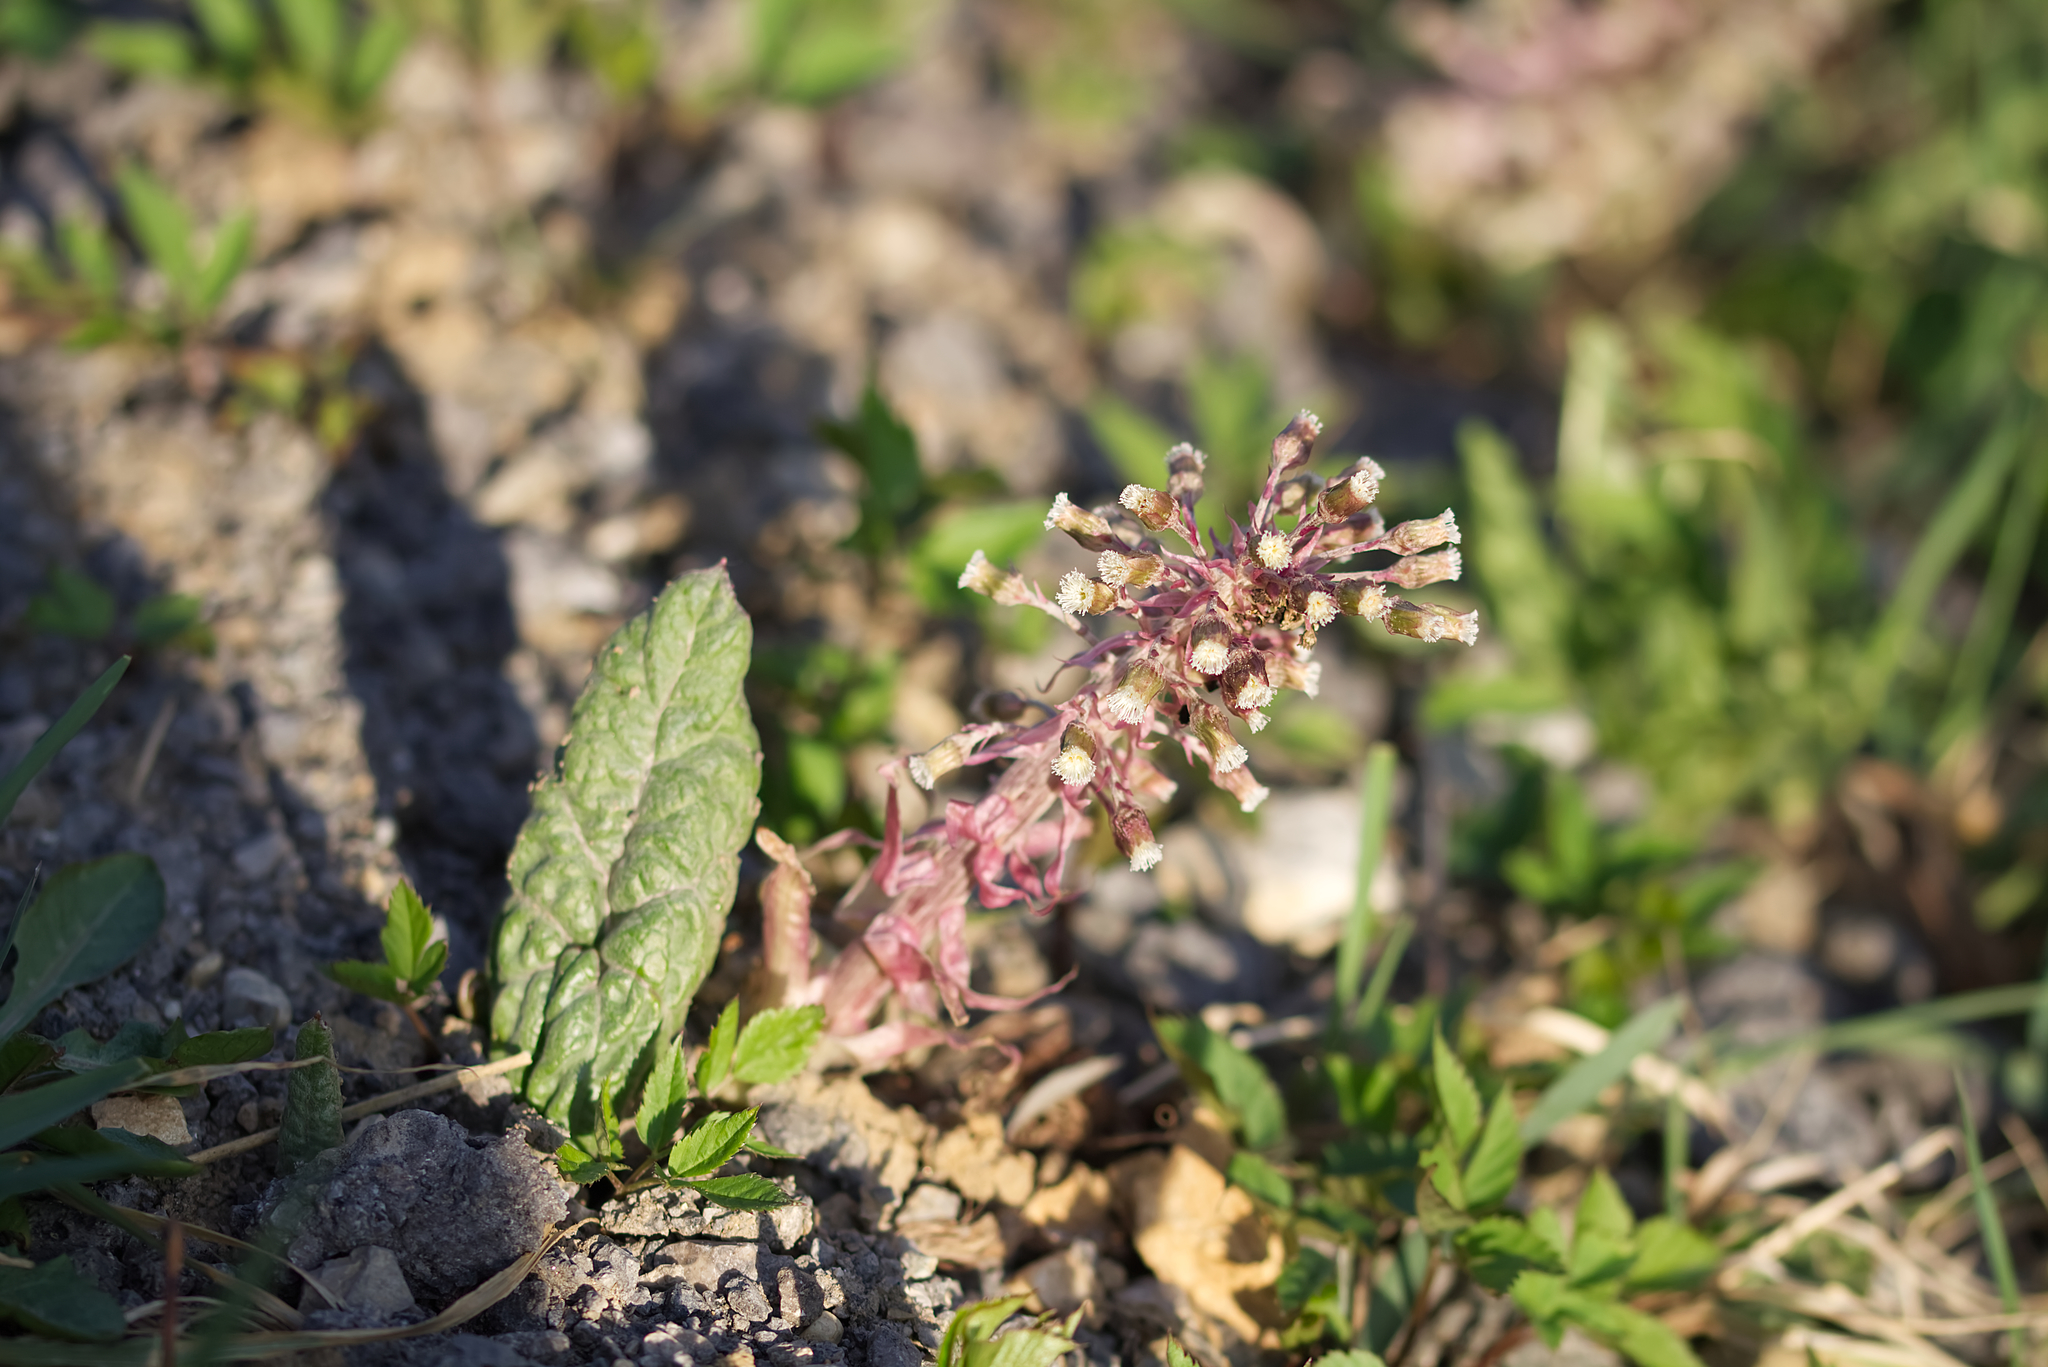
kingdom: Plantae
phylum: Tracheophyta
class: Magnoliopsida
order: Asterales
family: Asteraceae
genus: Petasites
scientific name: Petasites hybridus
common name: Butterbur
